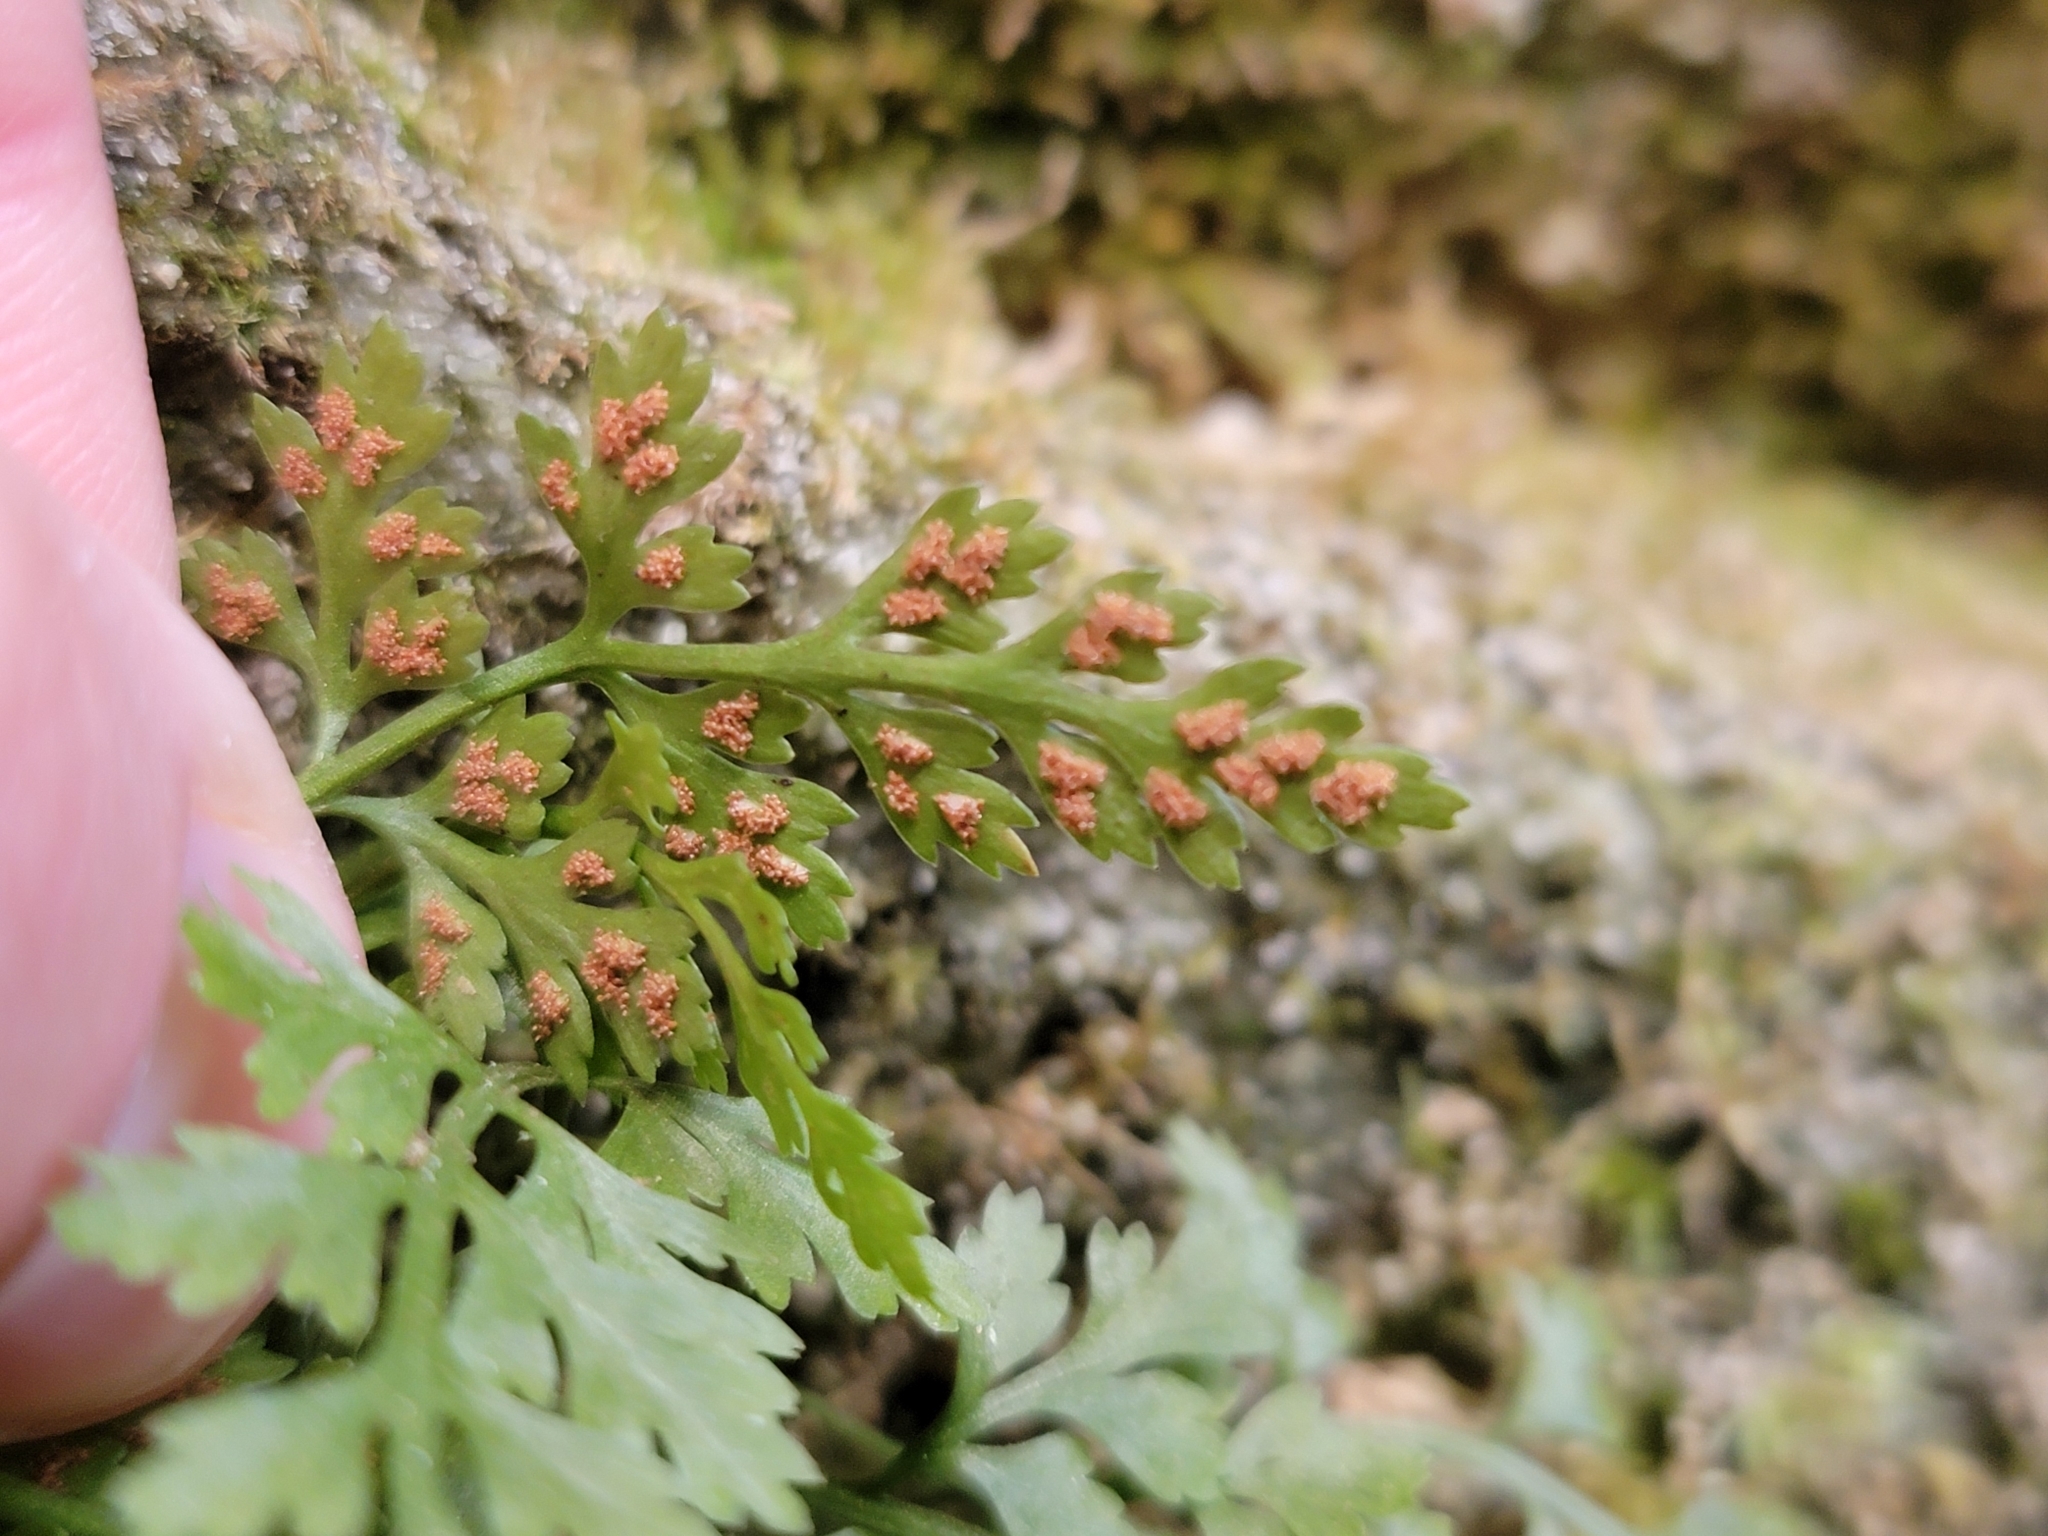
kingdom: Plantae
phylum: Tracheophyta
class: Polypodiopsida
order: Polypodiales
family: Aspleniaceae
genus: Asplenium
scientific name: Asplenium montanum
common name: Mountain spleenwort
